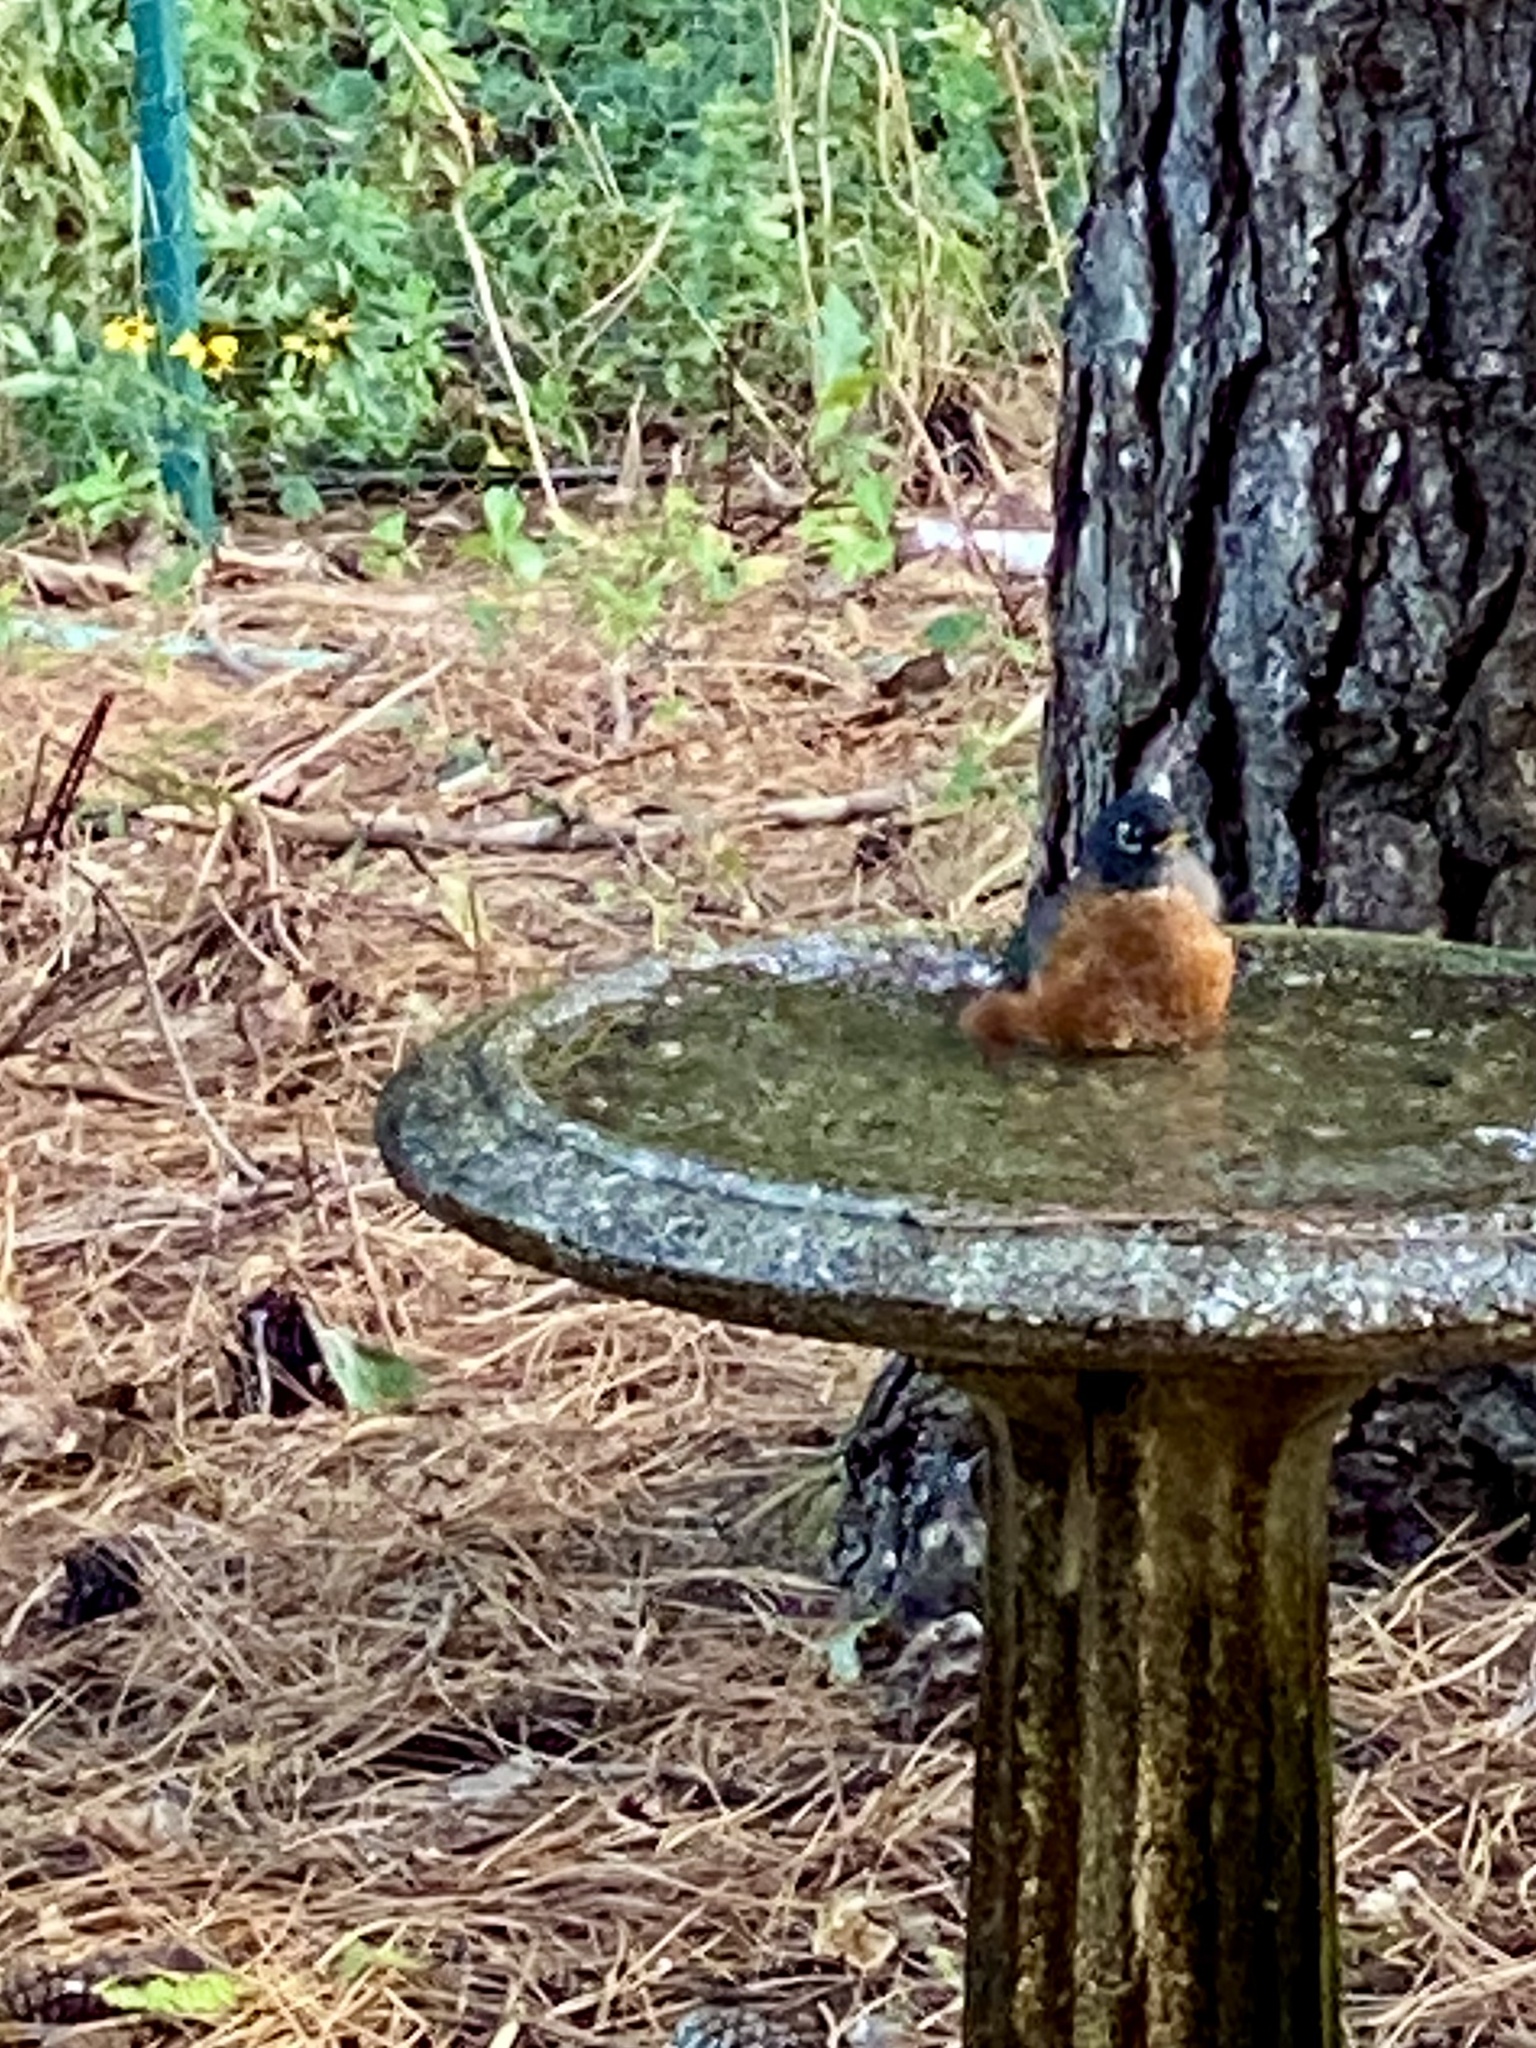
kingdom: Animalia
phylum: Chordata
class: Aves
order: Passeriformes
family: Turdidae
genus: Turdus
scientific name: Turdus migratorius
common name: American robin
